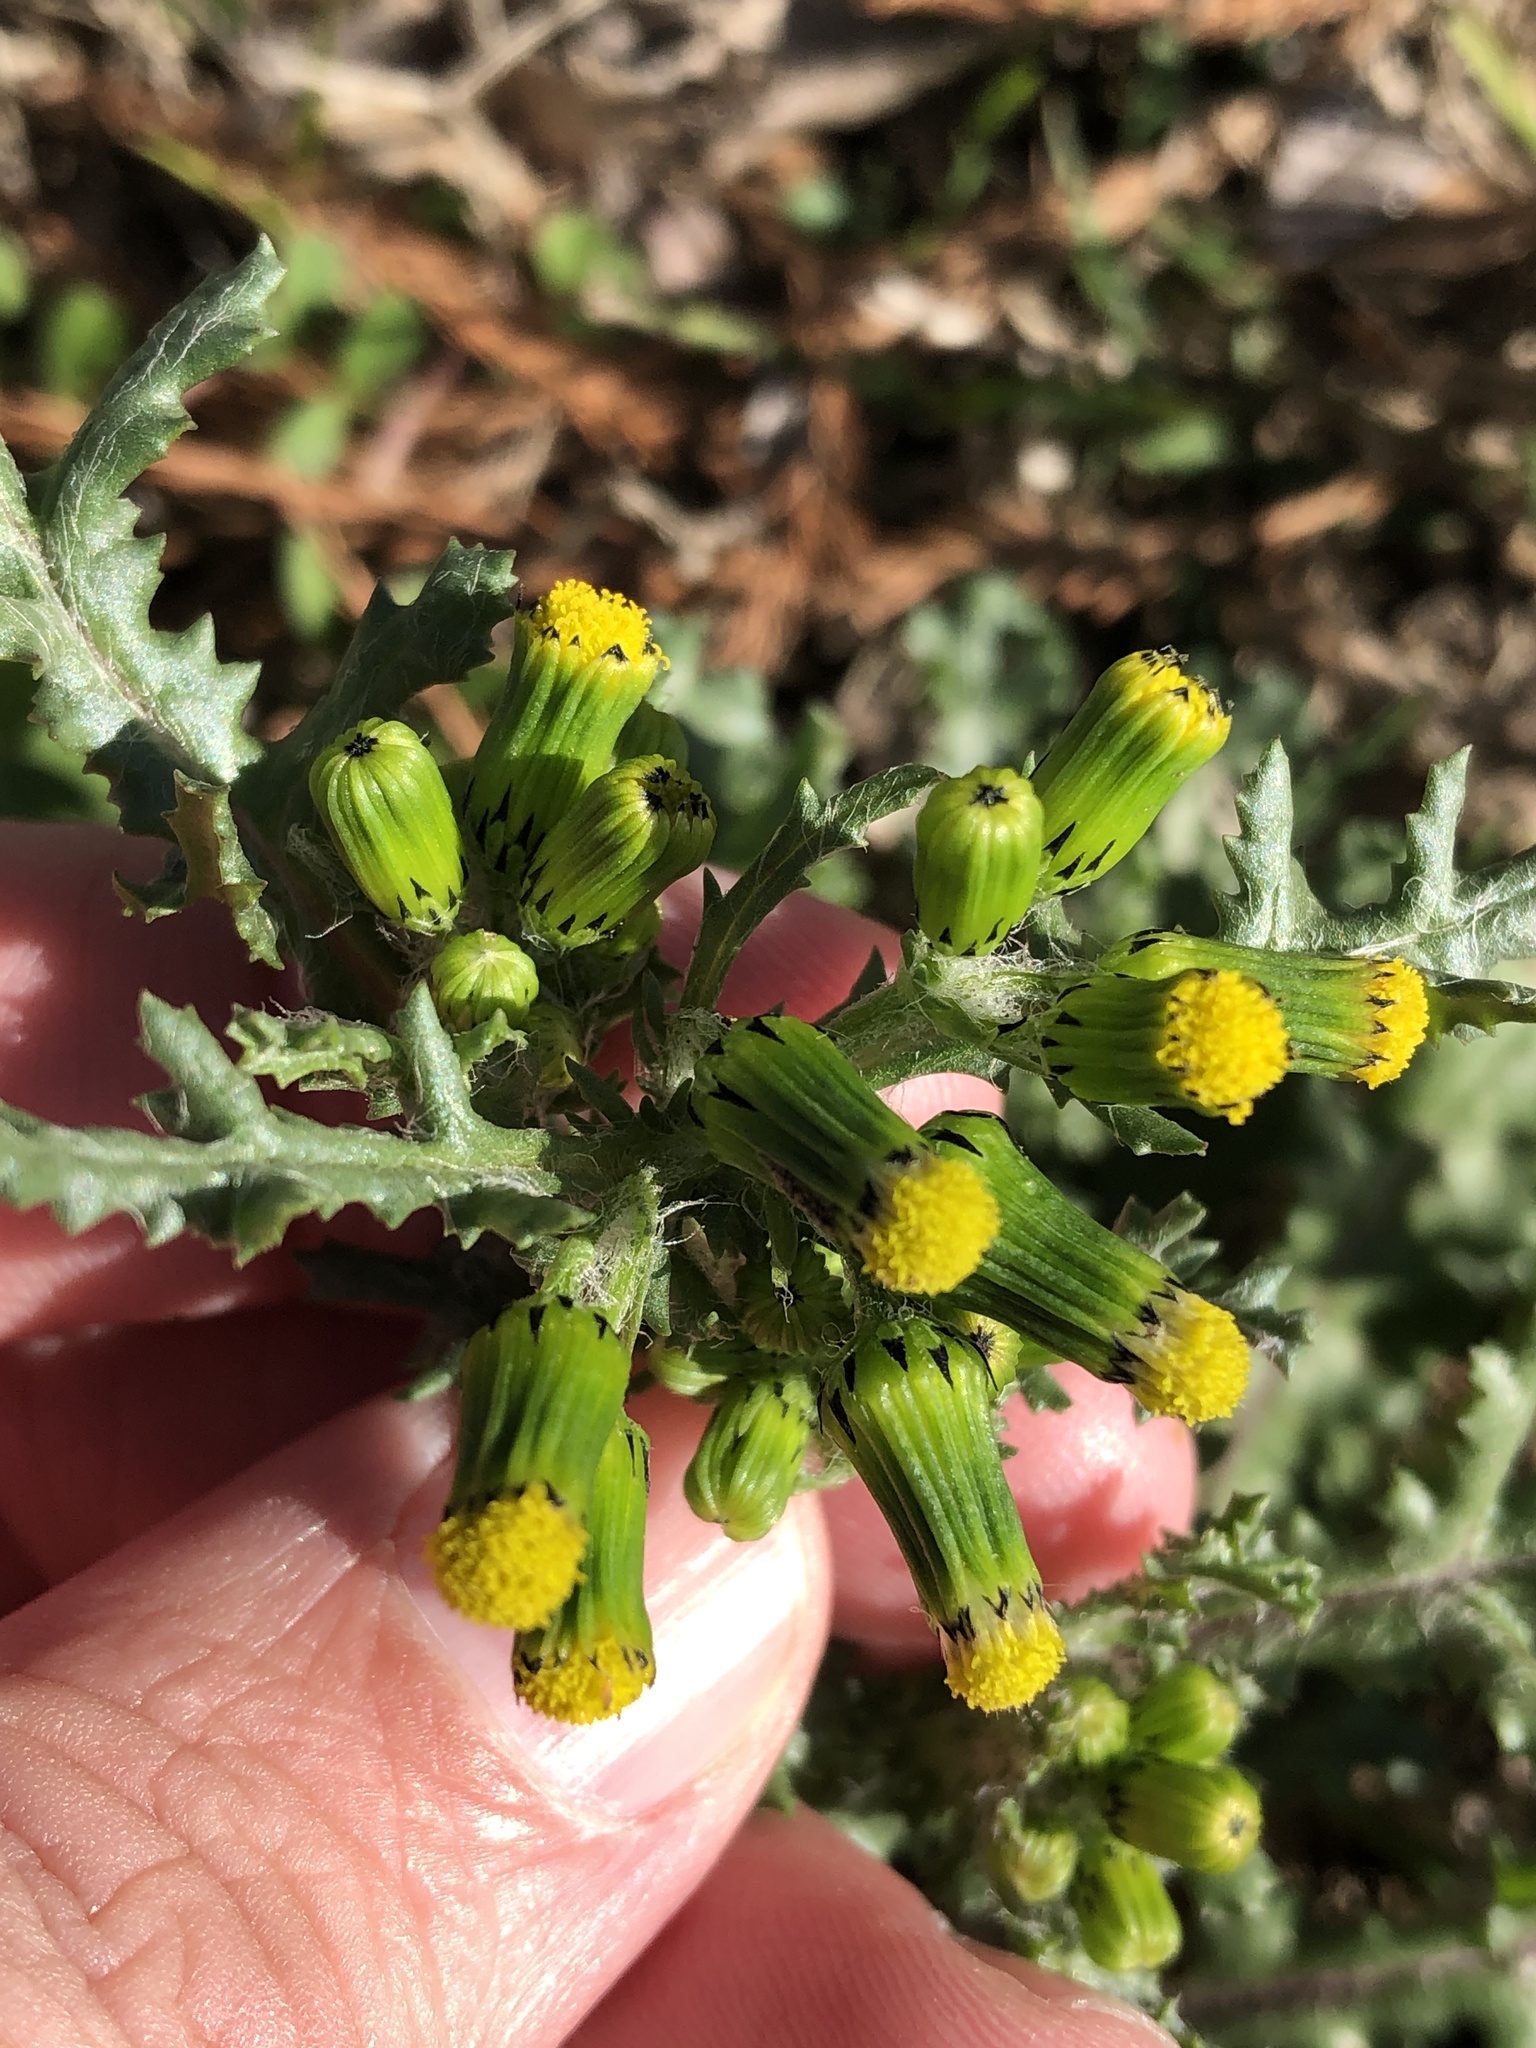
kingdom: Plantae
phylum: Tracheophyta
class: Magnoliopsida
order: Asterales
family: Asteraceae
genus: Senecio
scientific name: Senecio vulgaris
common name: Old-man-in-the-spring
